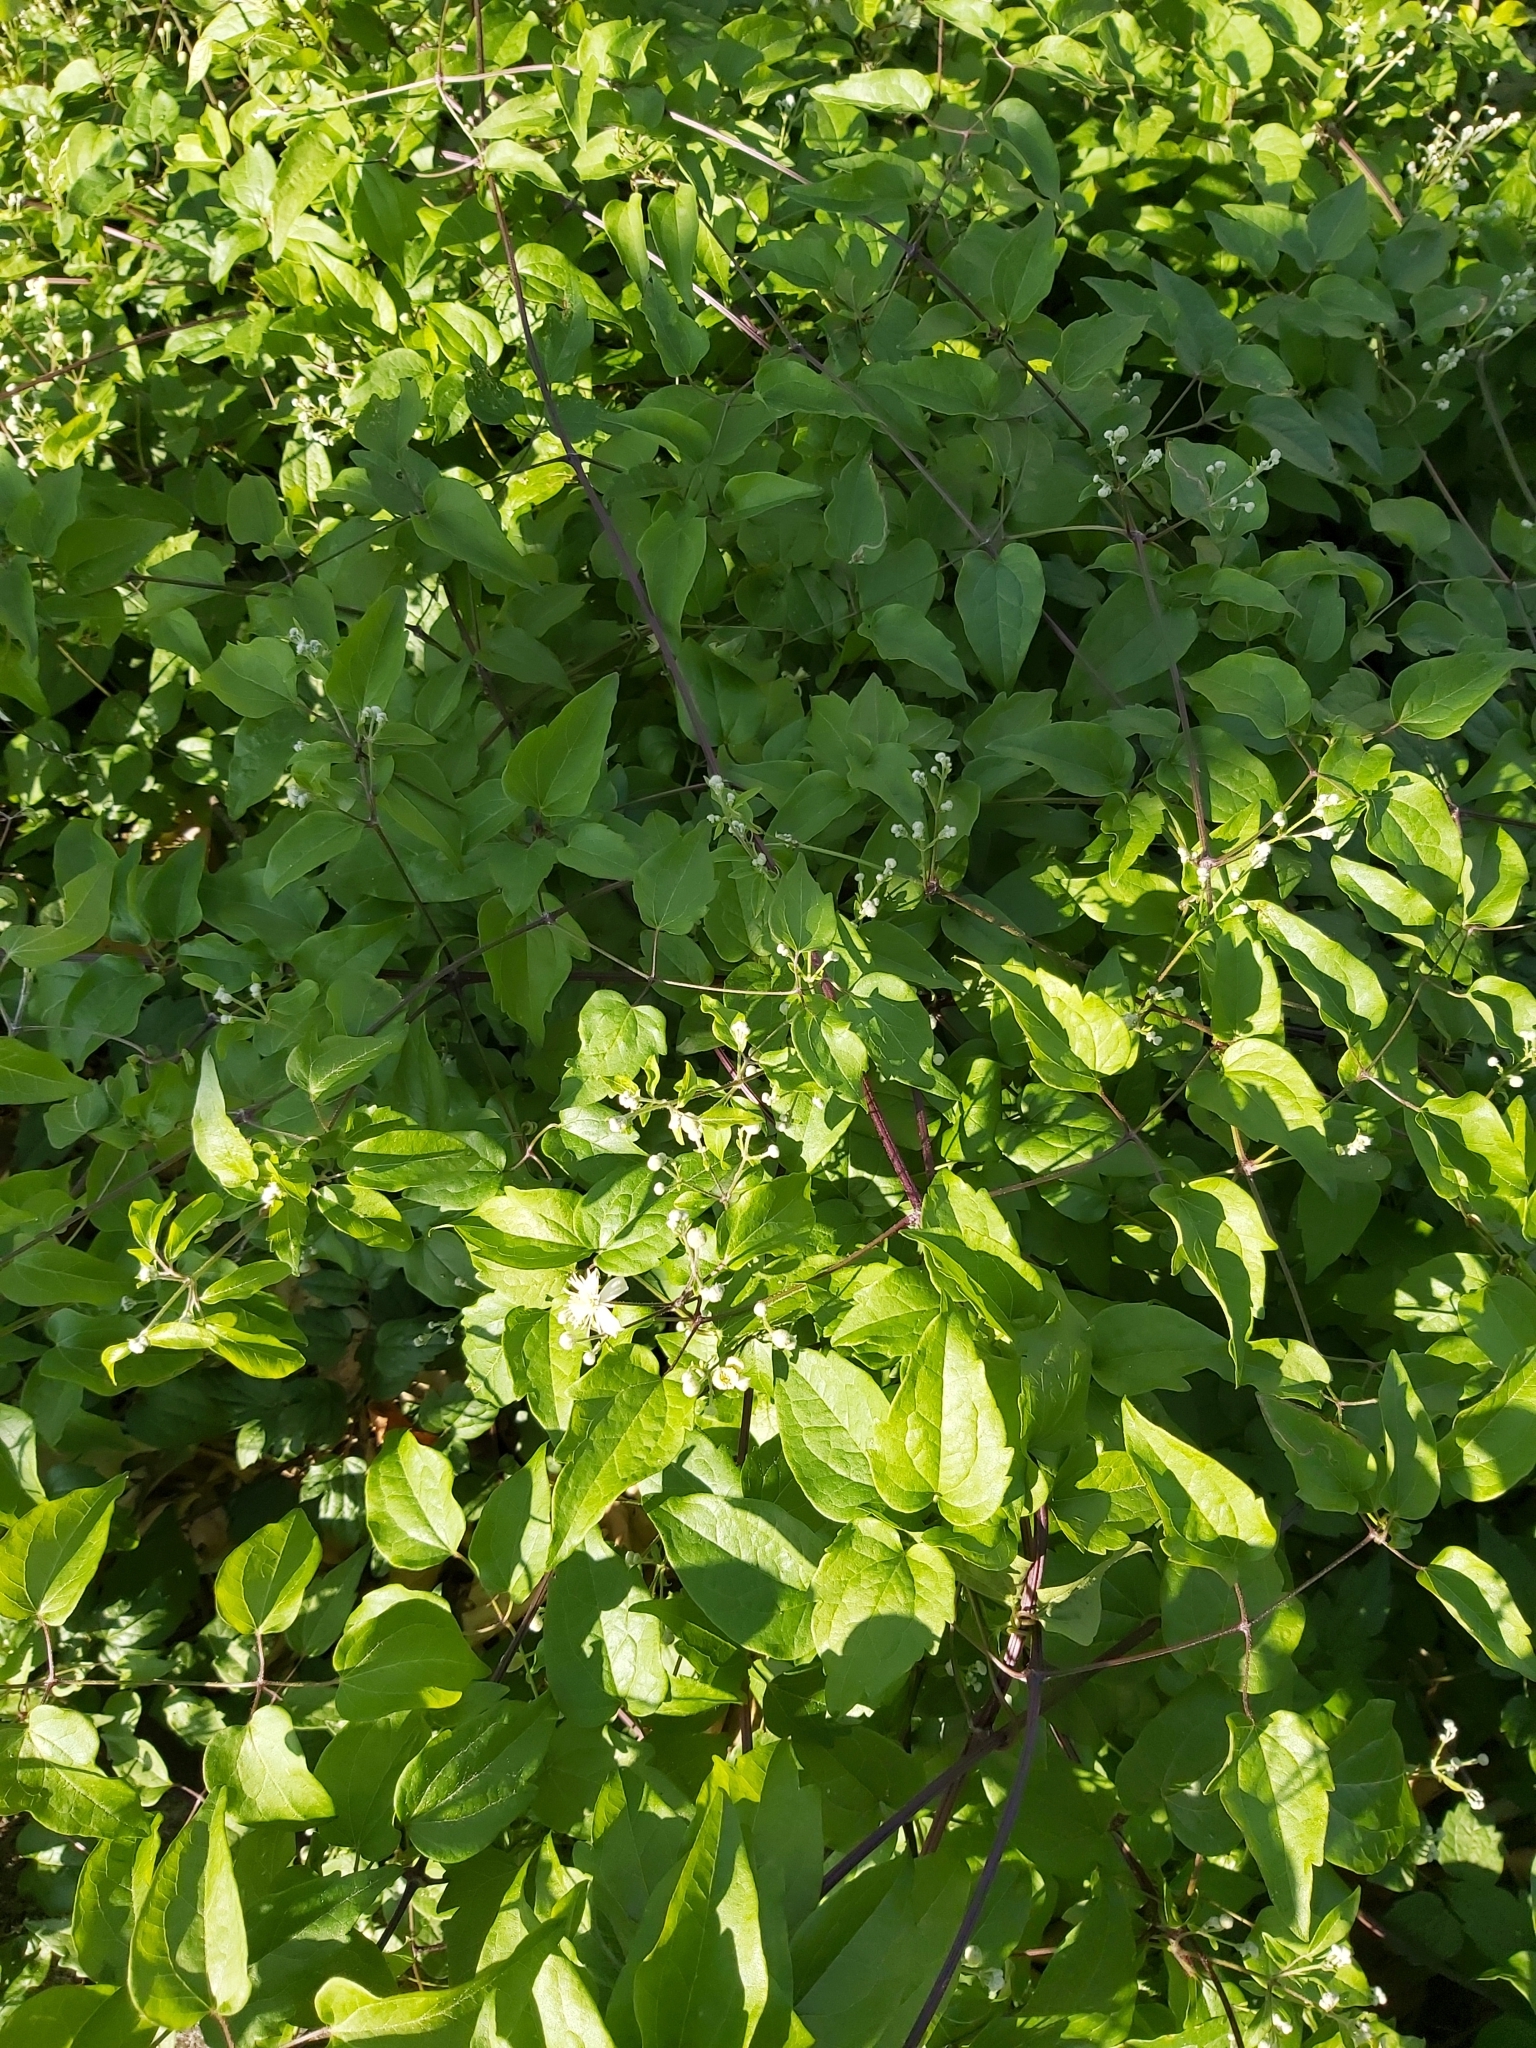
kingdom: Plantae
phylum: Tracheophyta
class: Magnoliopsida
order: Ranunculales
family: Ranunculaceae
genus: Clematis
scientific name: Clematis vitalba
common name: Evergreen clematis
